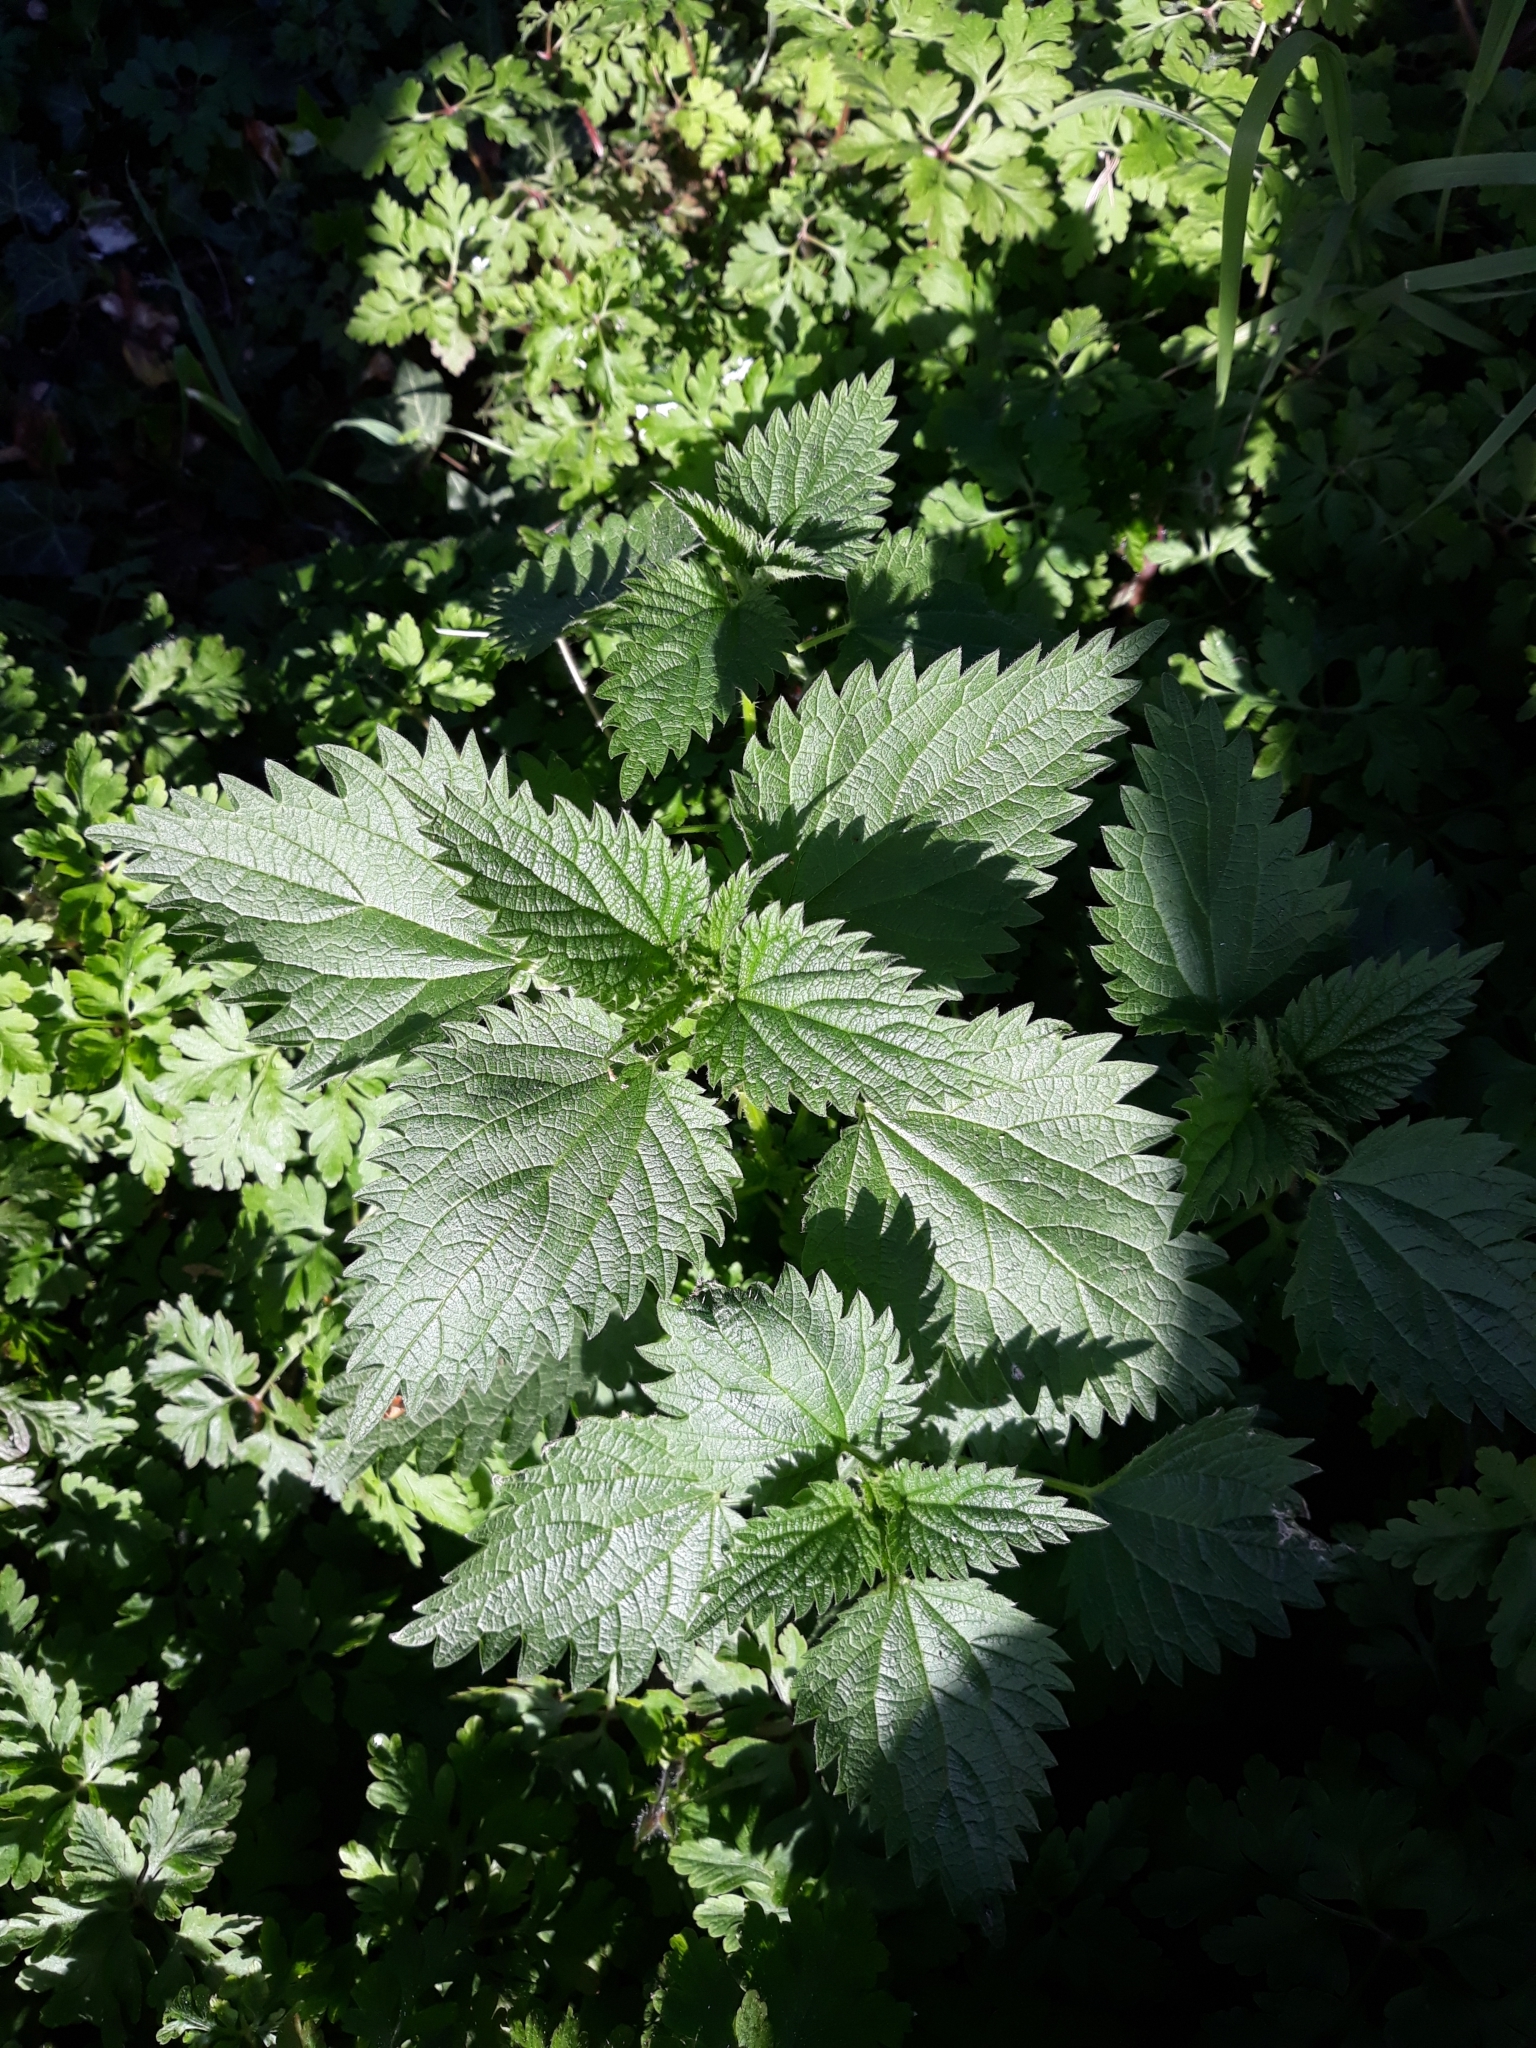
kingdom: Plantae
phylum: Tracheophyta
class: Magnoliopsida
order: Rosales
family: Urticaceae
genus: Urtica
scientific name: Urtica dioica
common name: Common nettle
